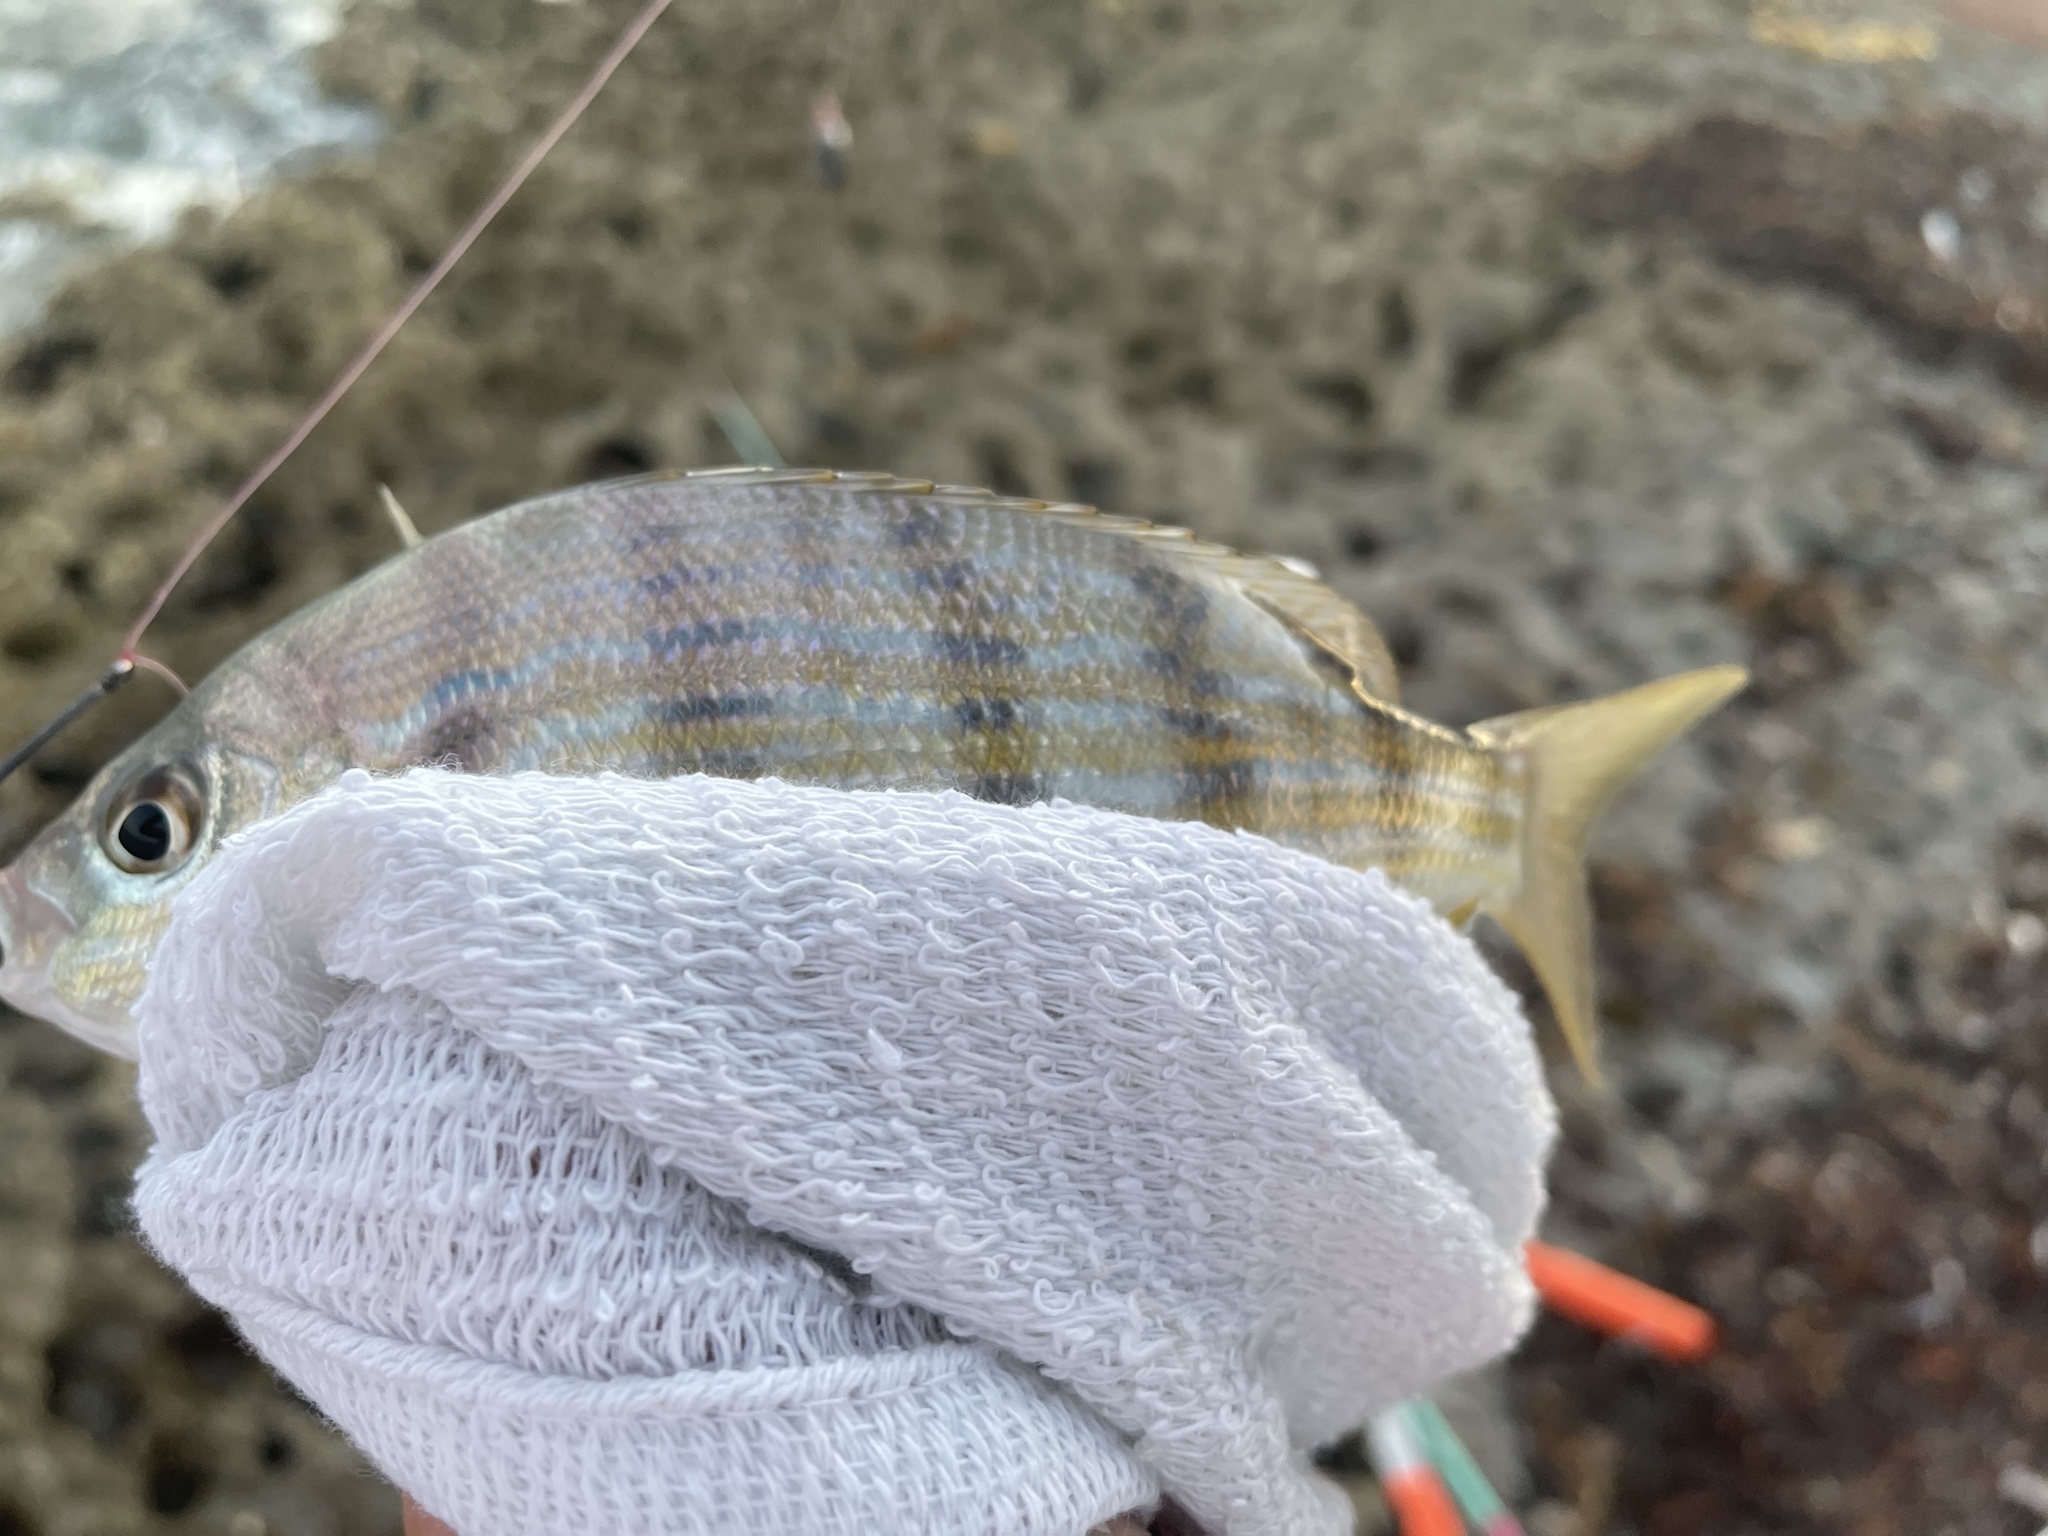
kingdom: Animalia
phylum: Chordata
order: Perciformes
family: Sparidae
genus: Lagodon
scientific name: Lagodon rhomboides
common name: Pinfish
